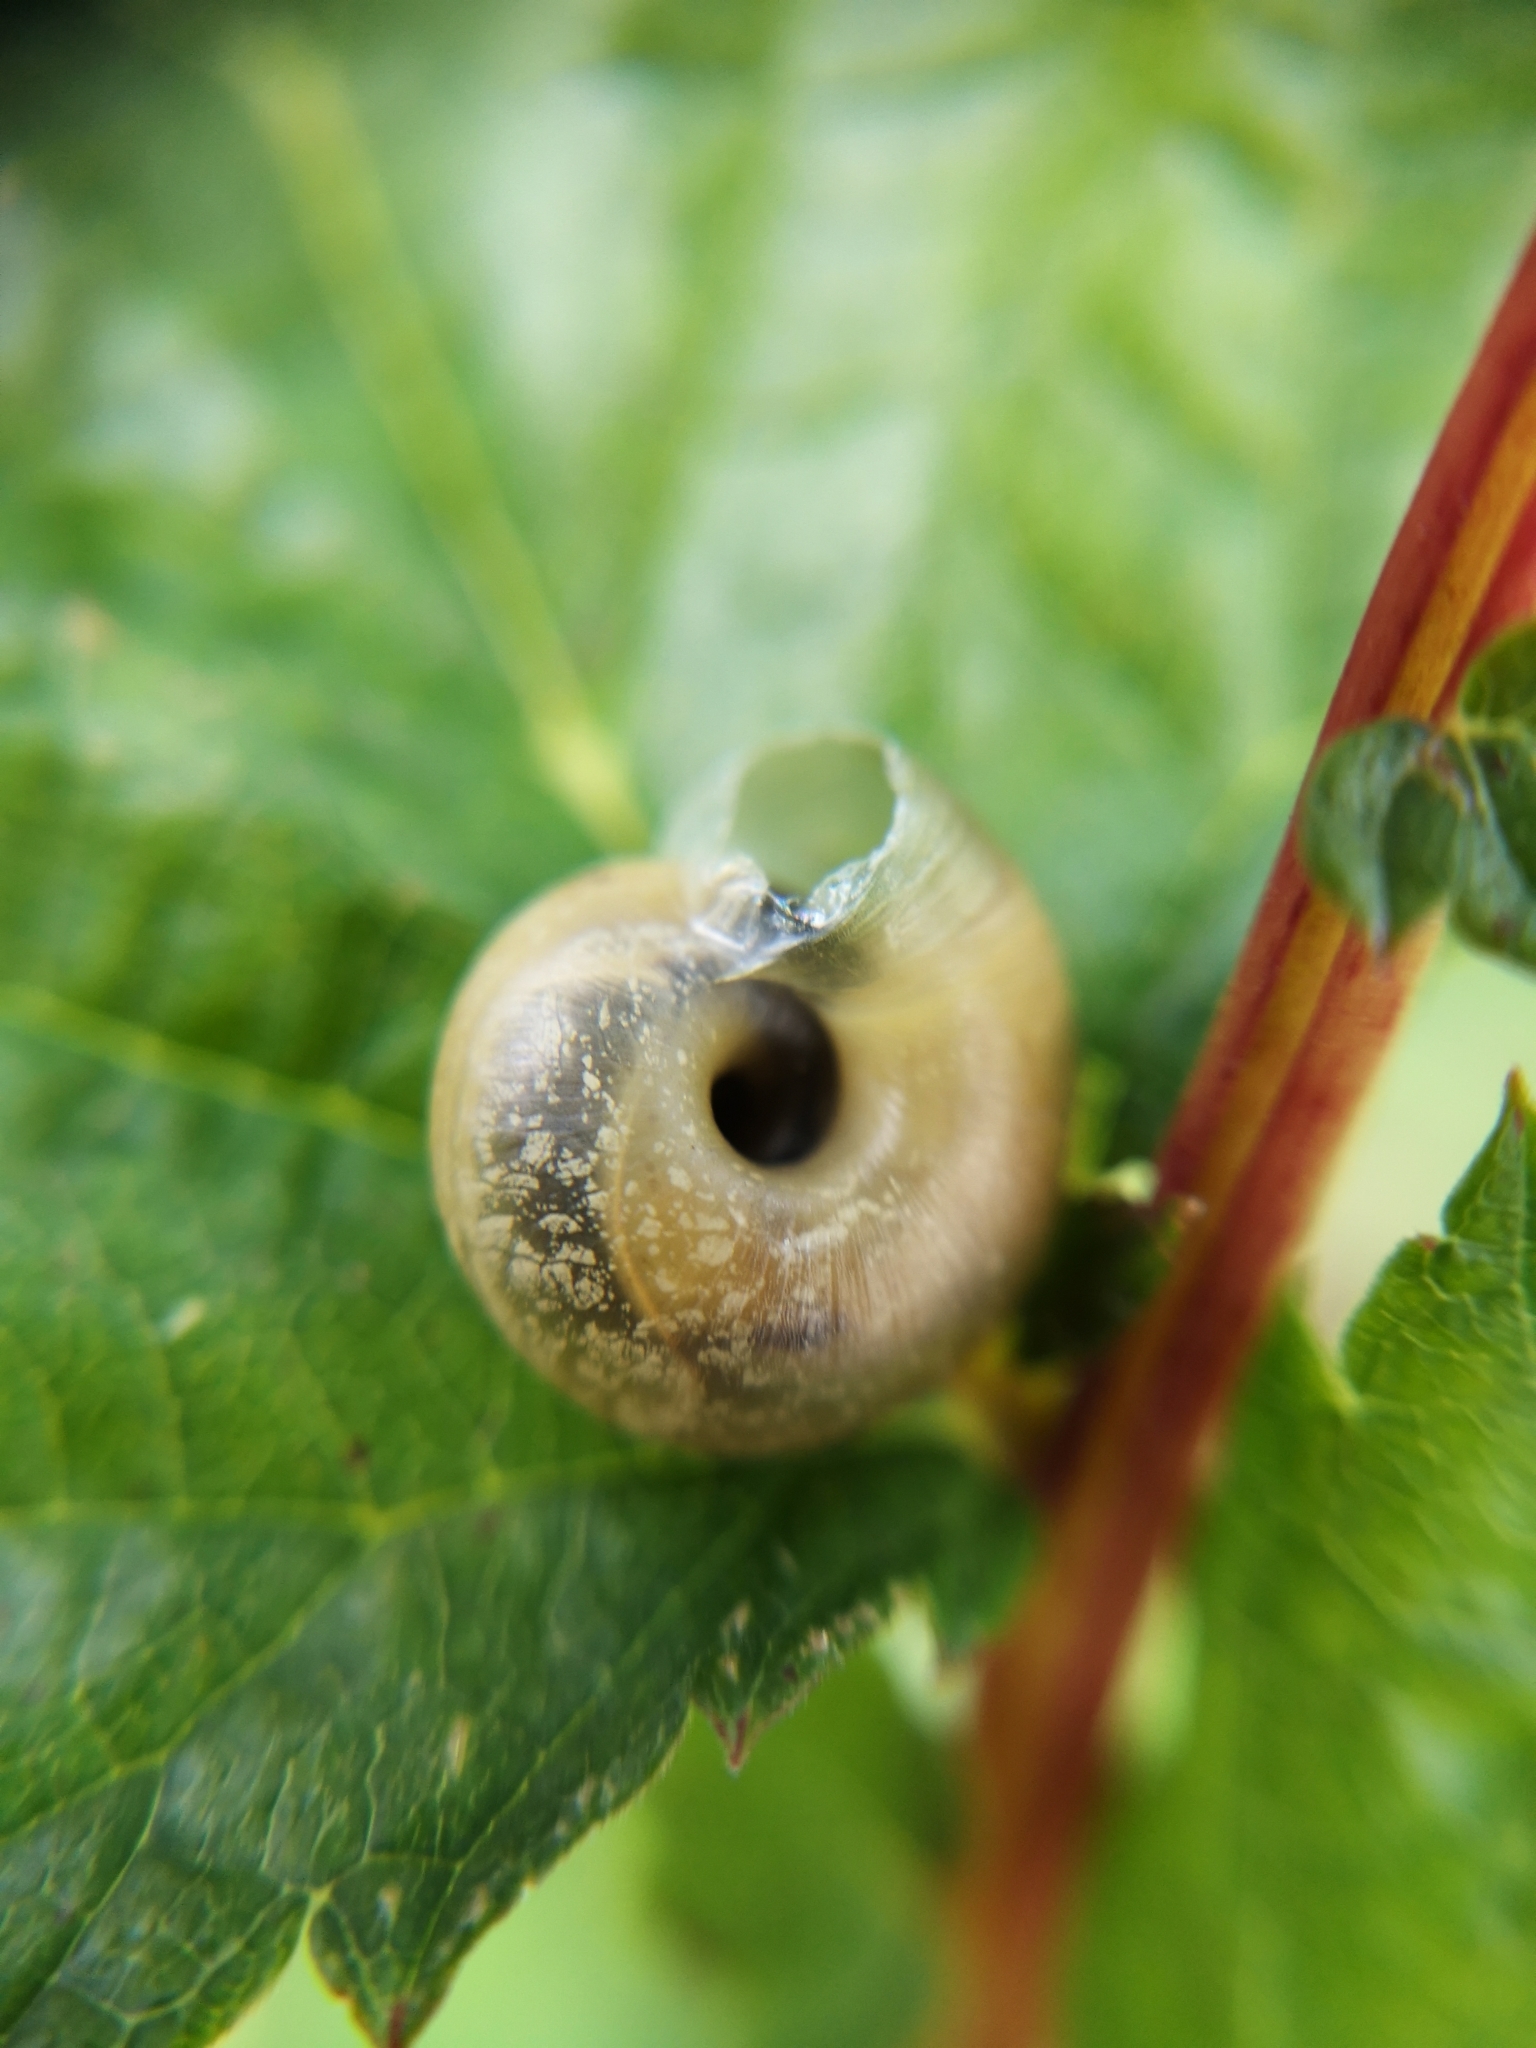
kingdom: Animalia
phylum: Mollusca
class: Gastropoda
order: Stylommatophora
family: Hygromiidae
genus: Urticicola
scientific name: Urticicola umbrosus
